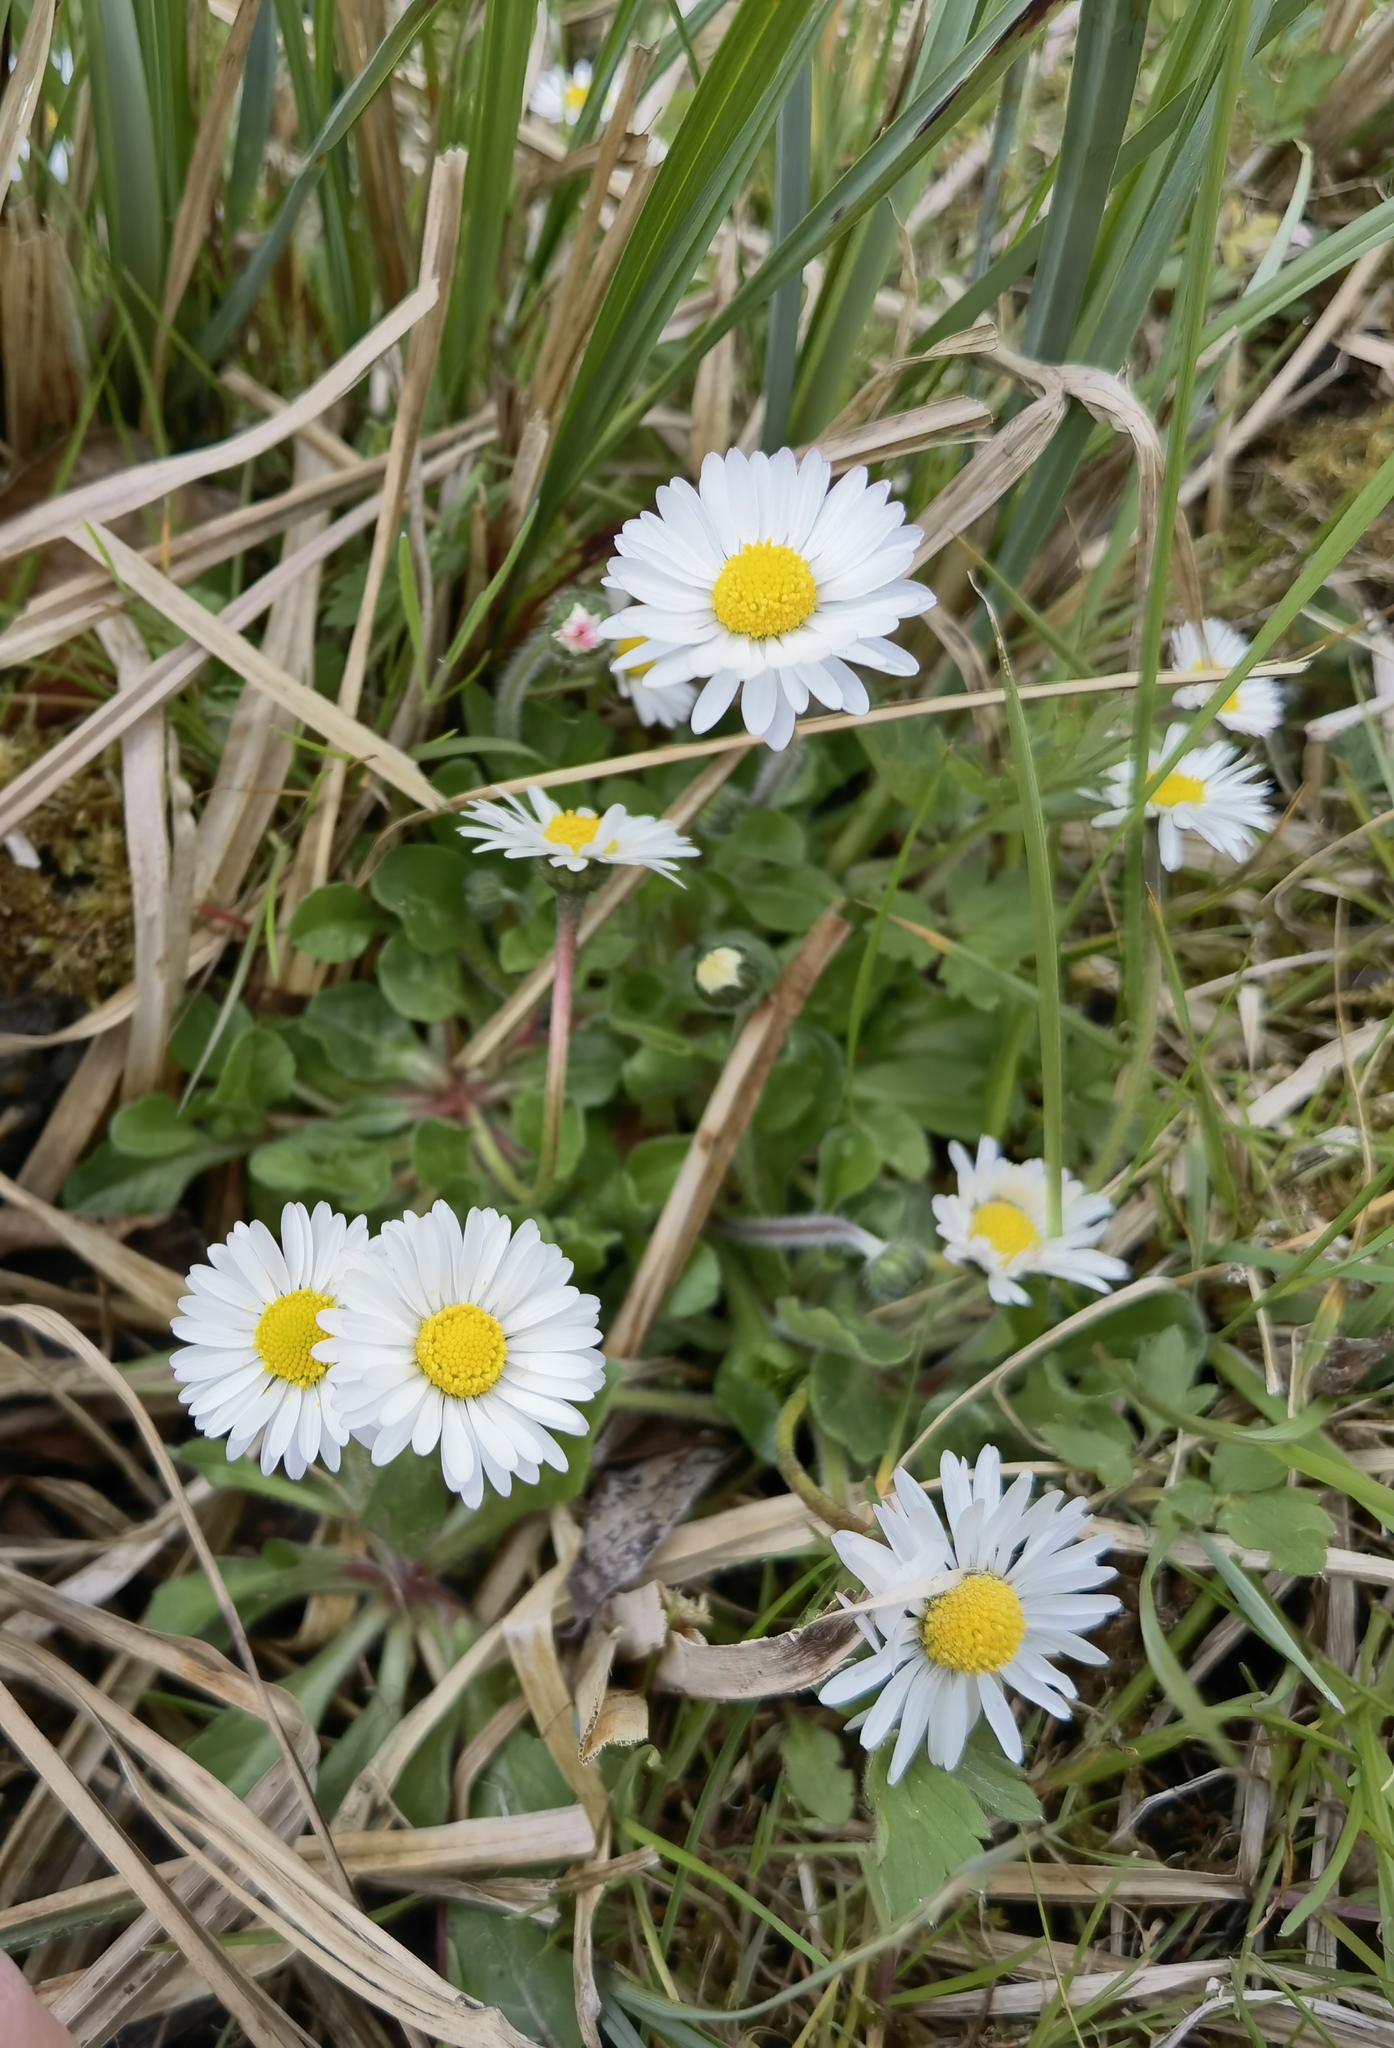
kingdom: Plantae
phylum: Tracheophyta
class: Magnoliopsida
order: Asterales
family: Asteraceae
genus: Bellis
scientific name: Bellis perennis
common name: Lawndaisy
